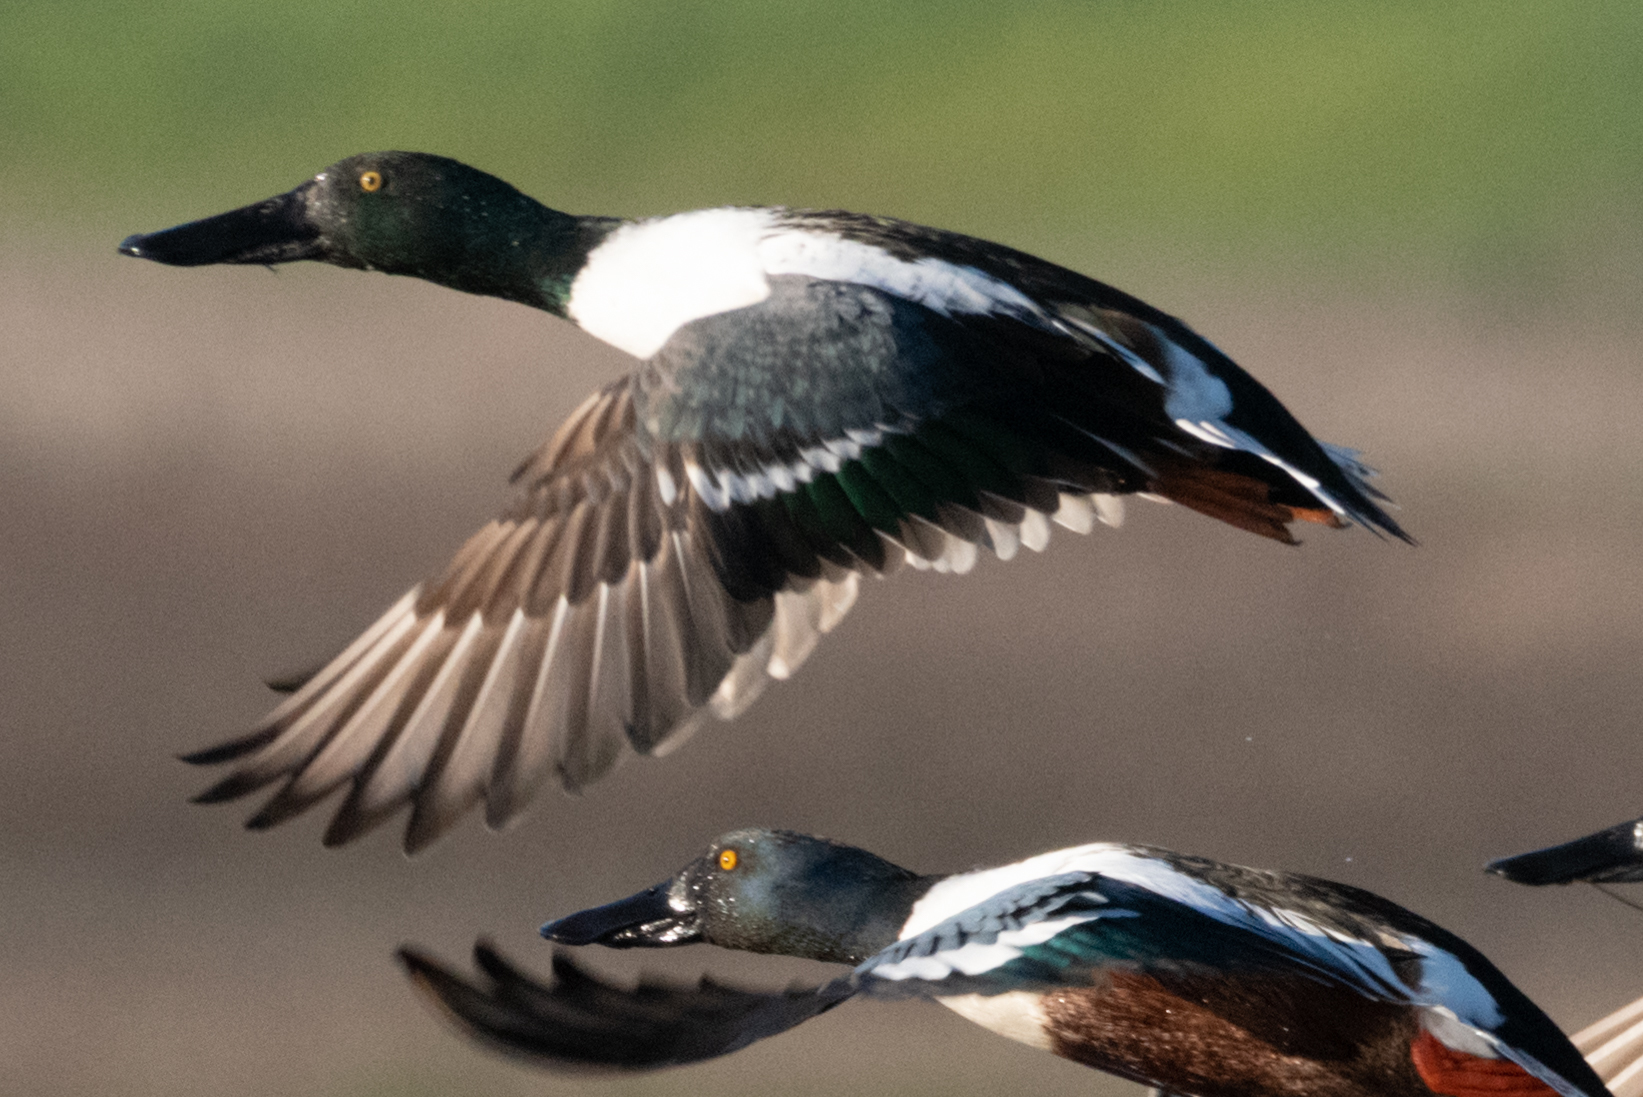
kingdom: Animalia
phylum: Chordata
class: Aves
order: Anseriformes
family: Anatidae
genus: Spatula
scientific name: Spatula clypeata
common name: Northern shoveler
